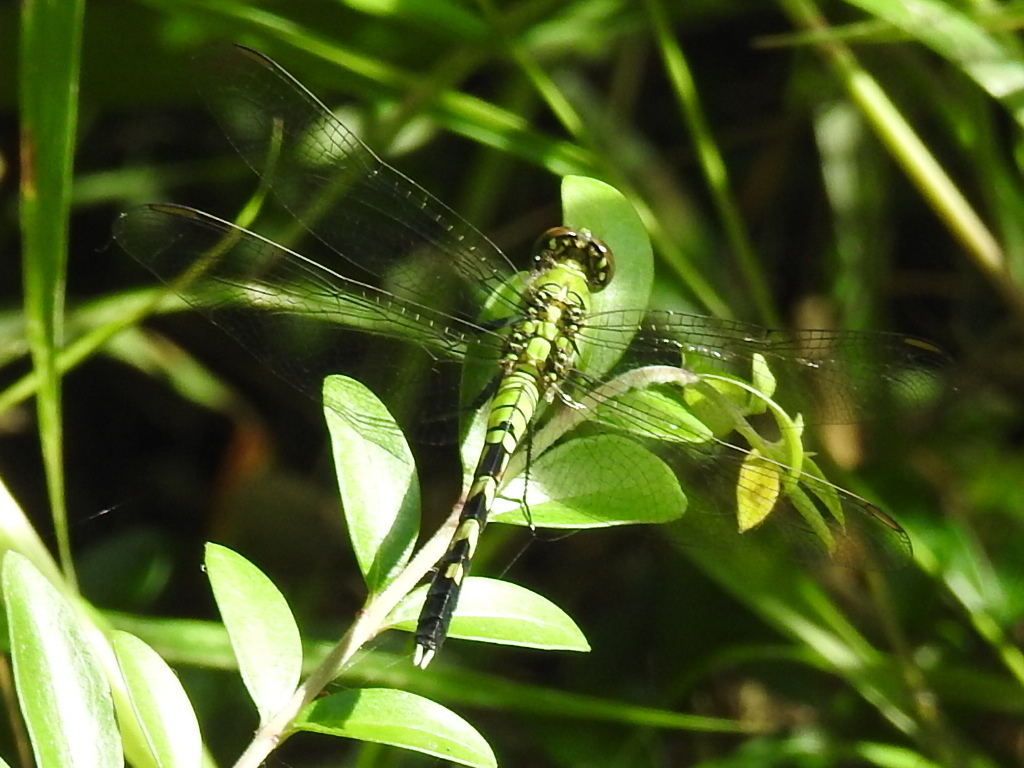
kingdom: Animalia
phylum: Arthropoda
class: Insecta
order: Odonata
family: Libellulidae
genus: Erythemis
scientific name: Erythemis simplicicollis
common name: Eastern pondhawk
